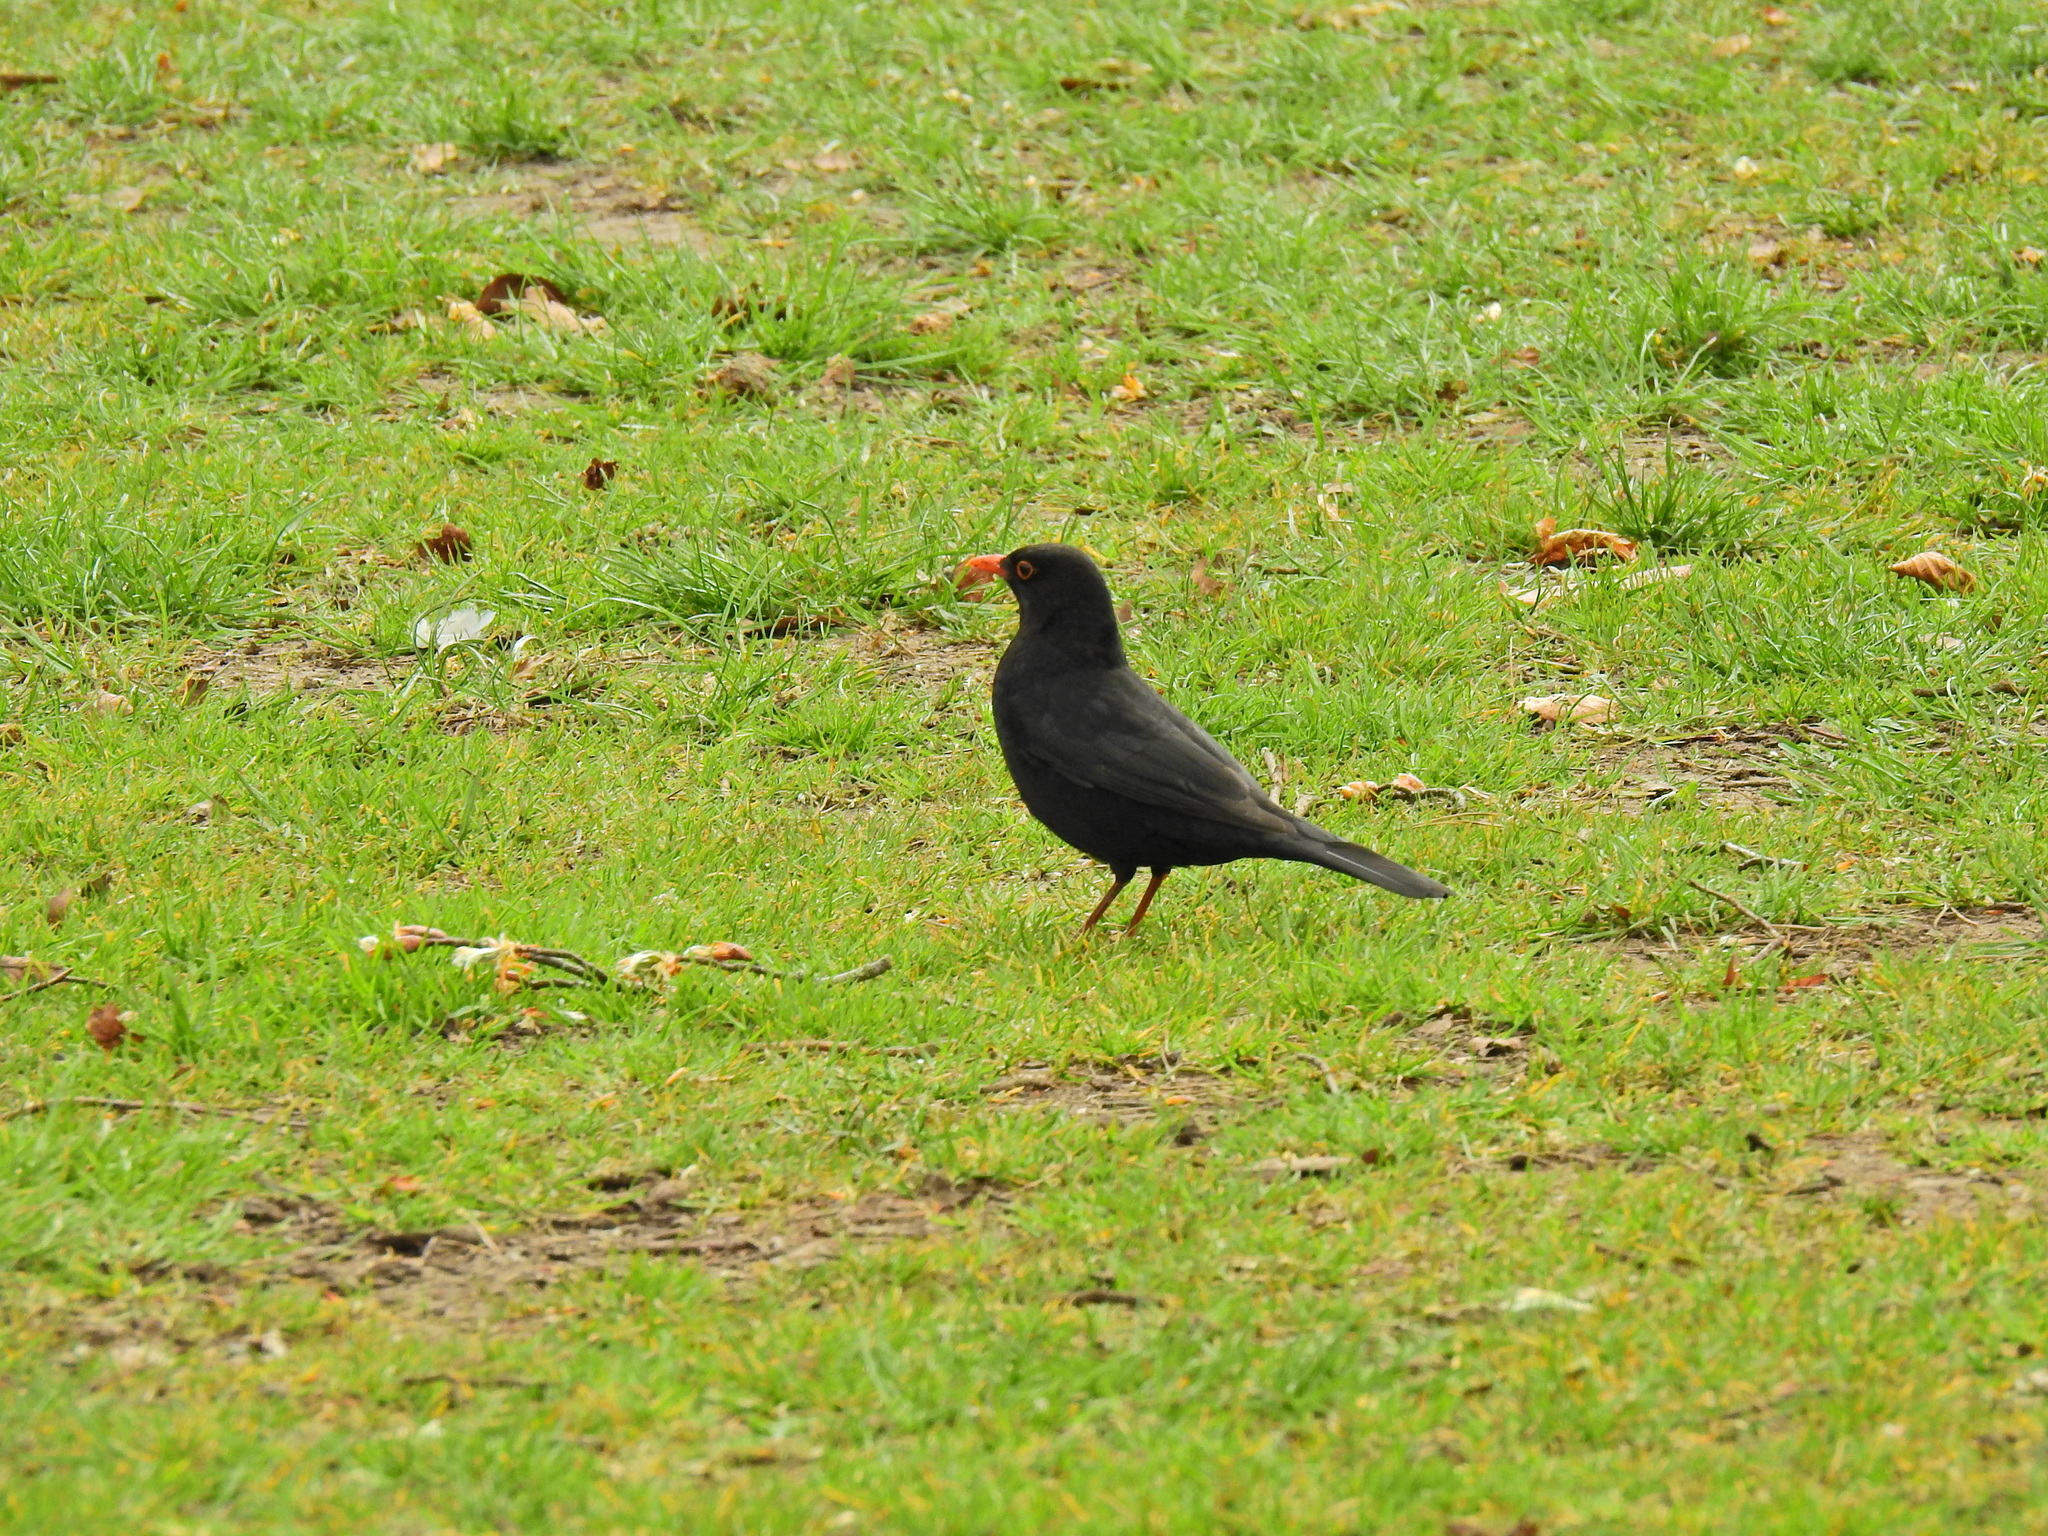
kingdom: Animalia
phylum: Chordata
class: Aves
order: Passeriformes
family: Turdidae
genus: Turdus
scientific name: Turdus merula
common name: Common blackbird
